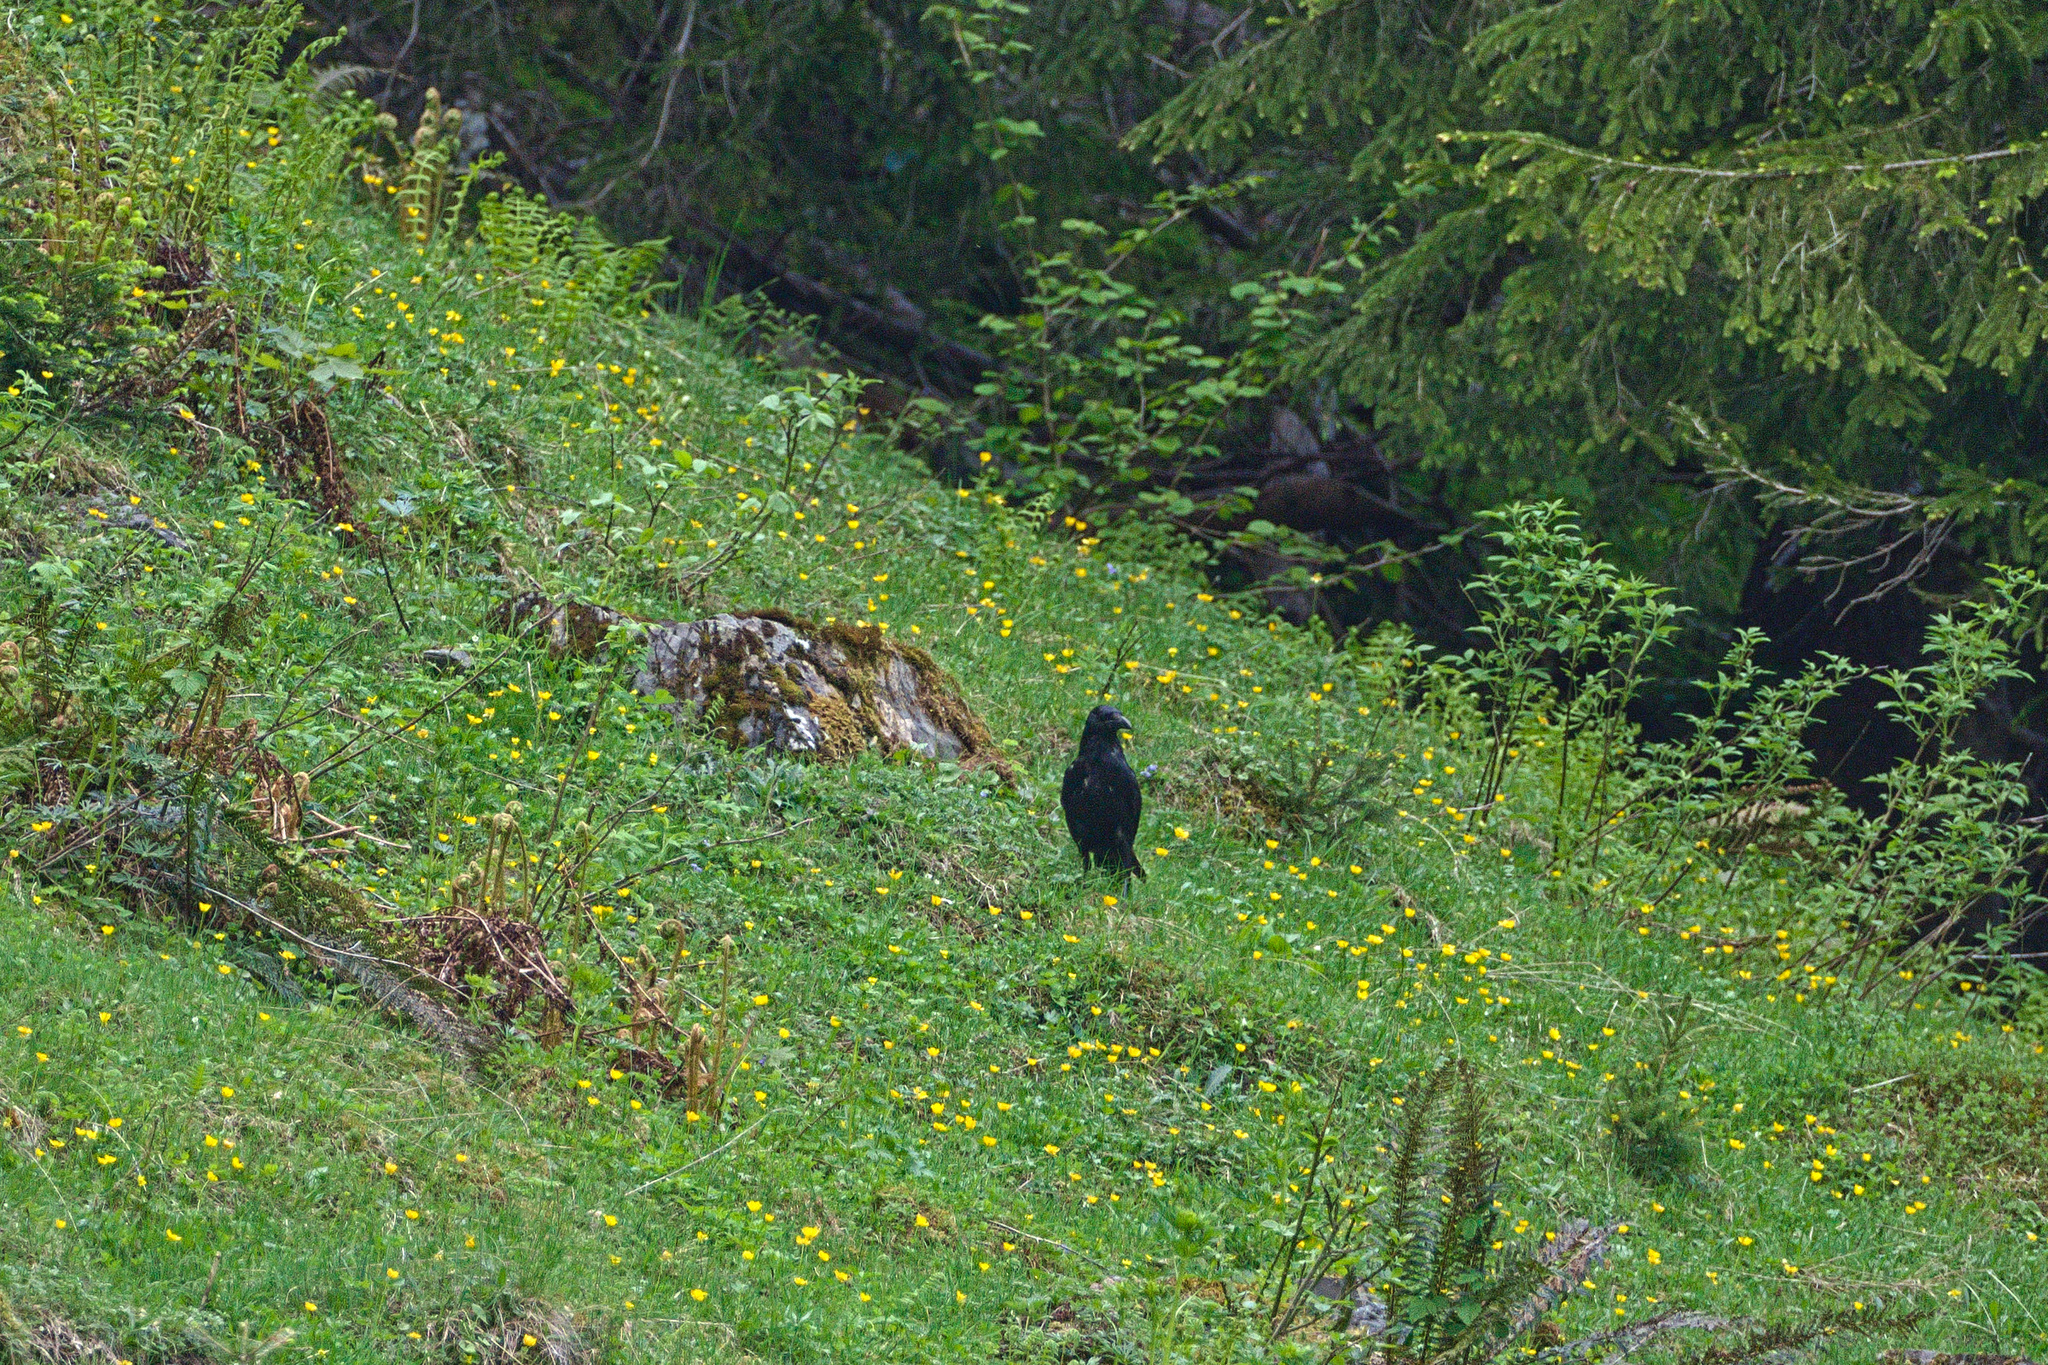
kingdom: Animalia
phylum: Chordata
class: Aves
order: Passeriformes
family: Corvidae
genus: Corvus
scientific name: Corvus corax
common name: Common raven
